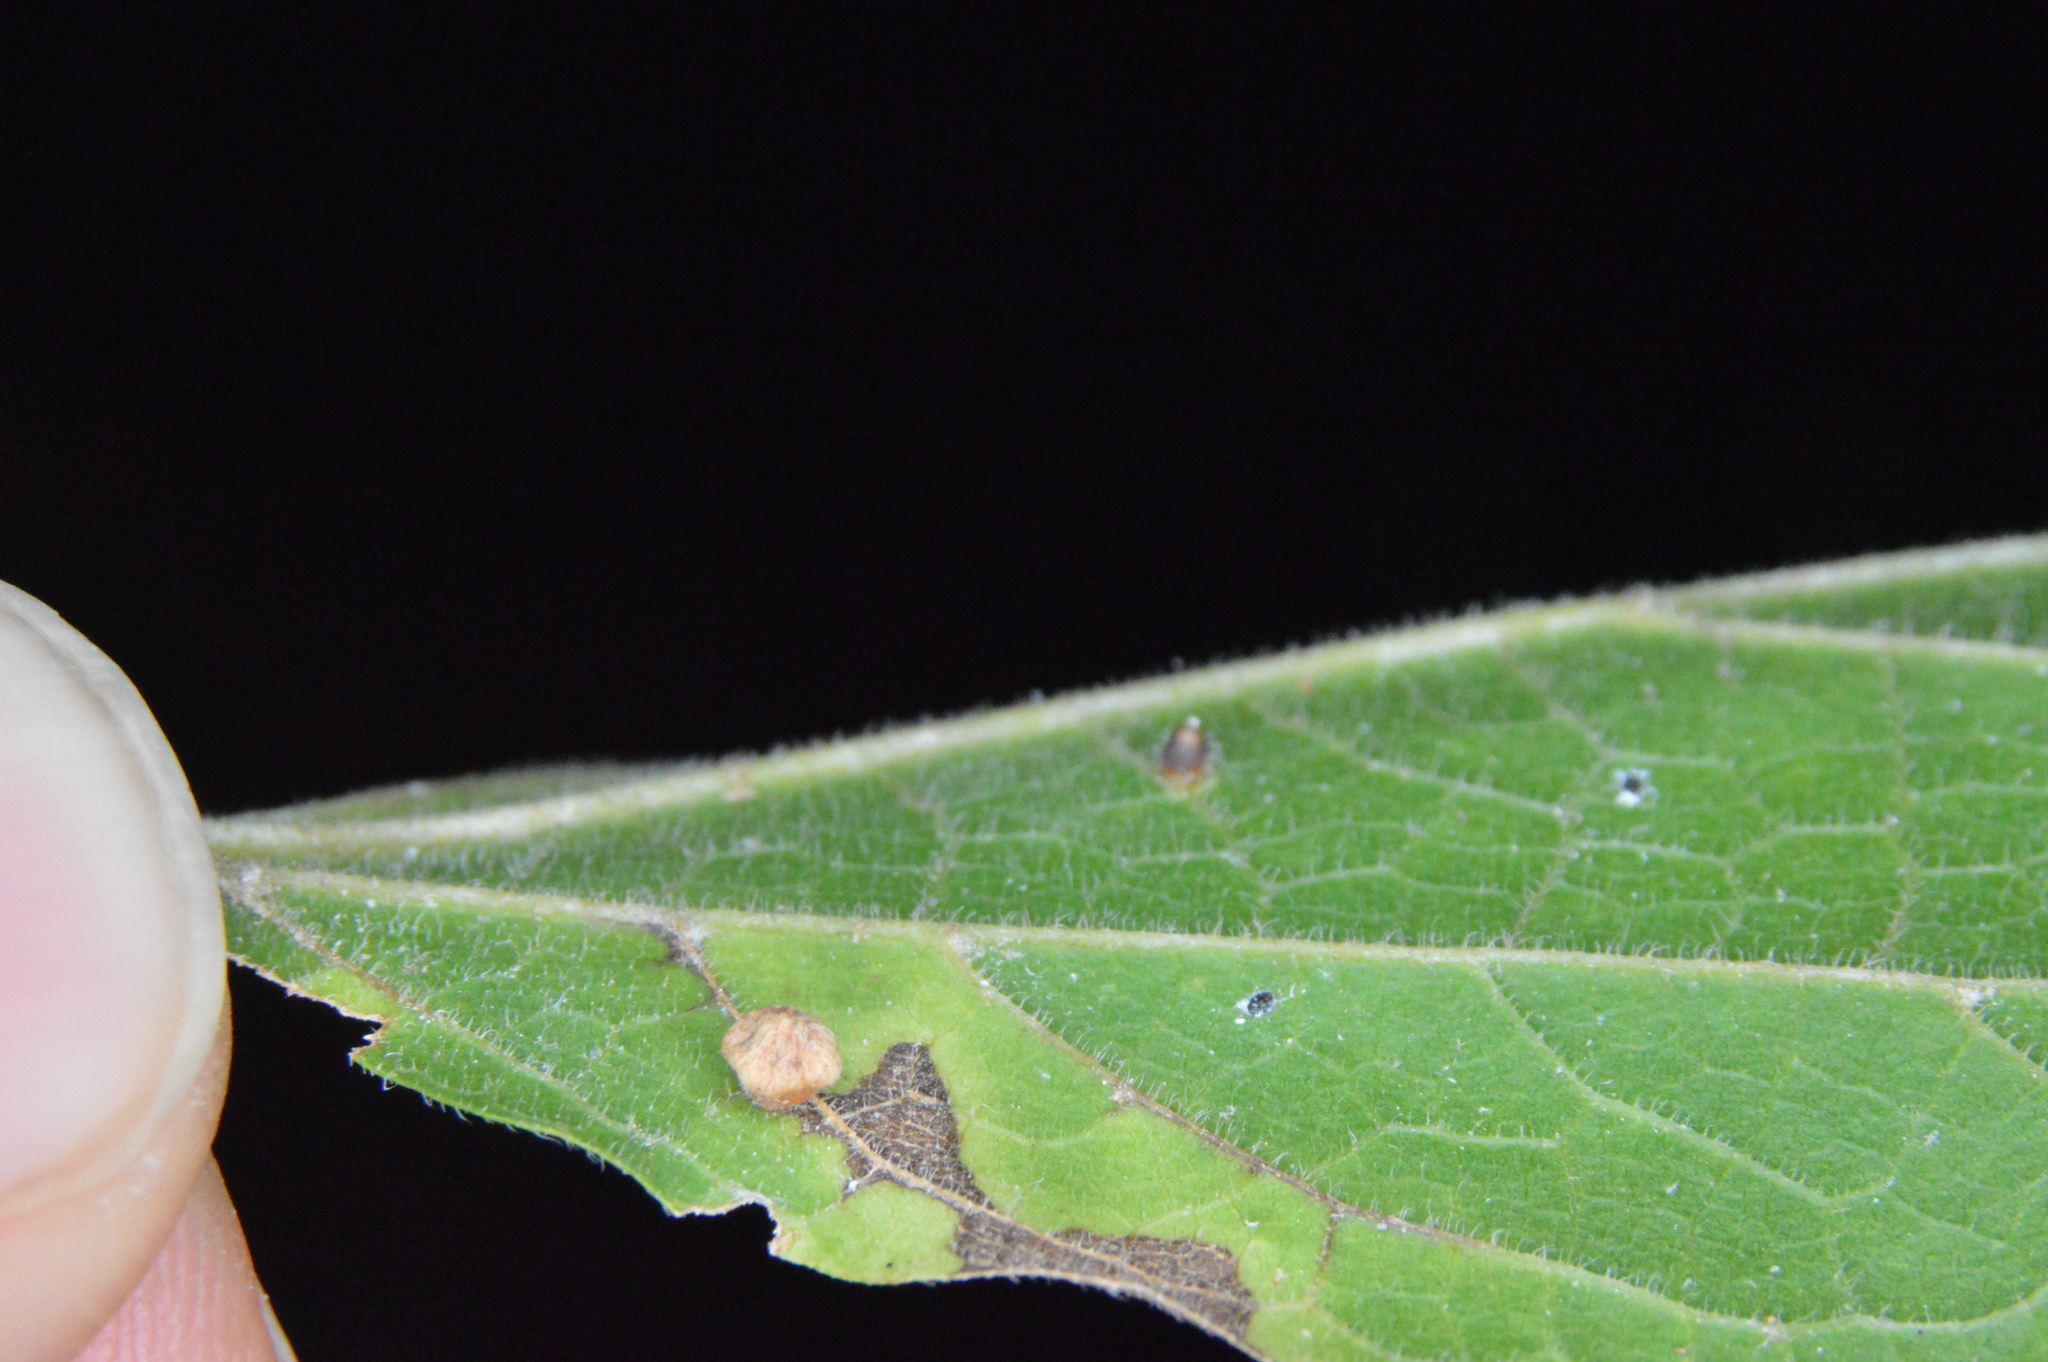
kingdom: Animalia
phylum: Arthropoda
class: Insecta
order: Diptera
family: Cecidomyiidae
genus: Celticecis
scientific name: Celticecis globosa
